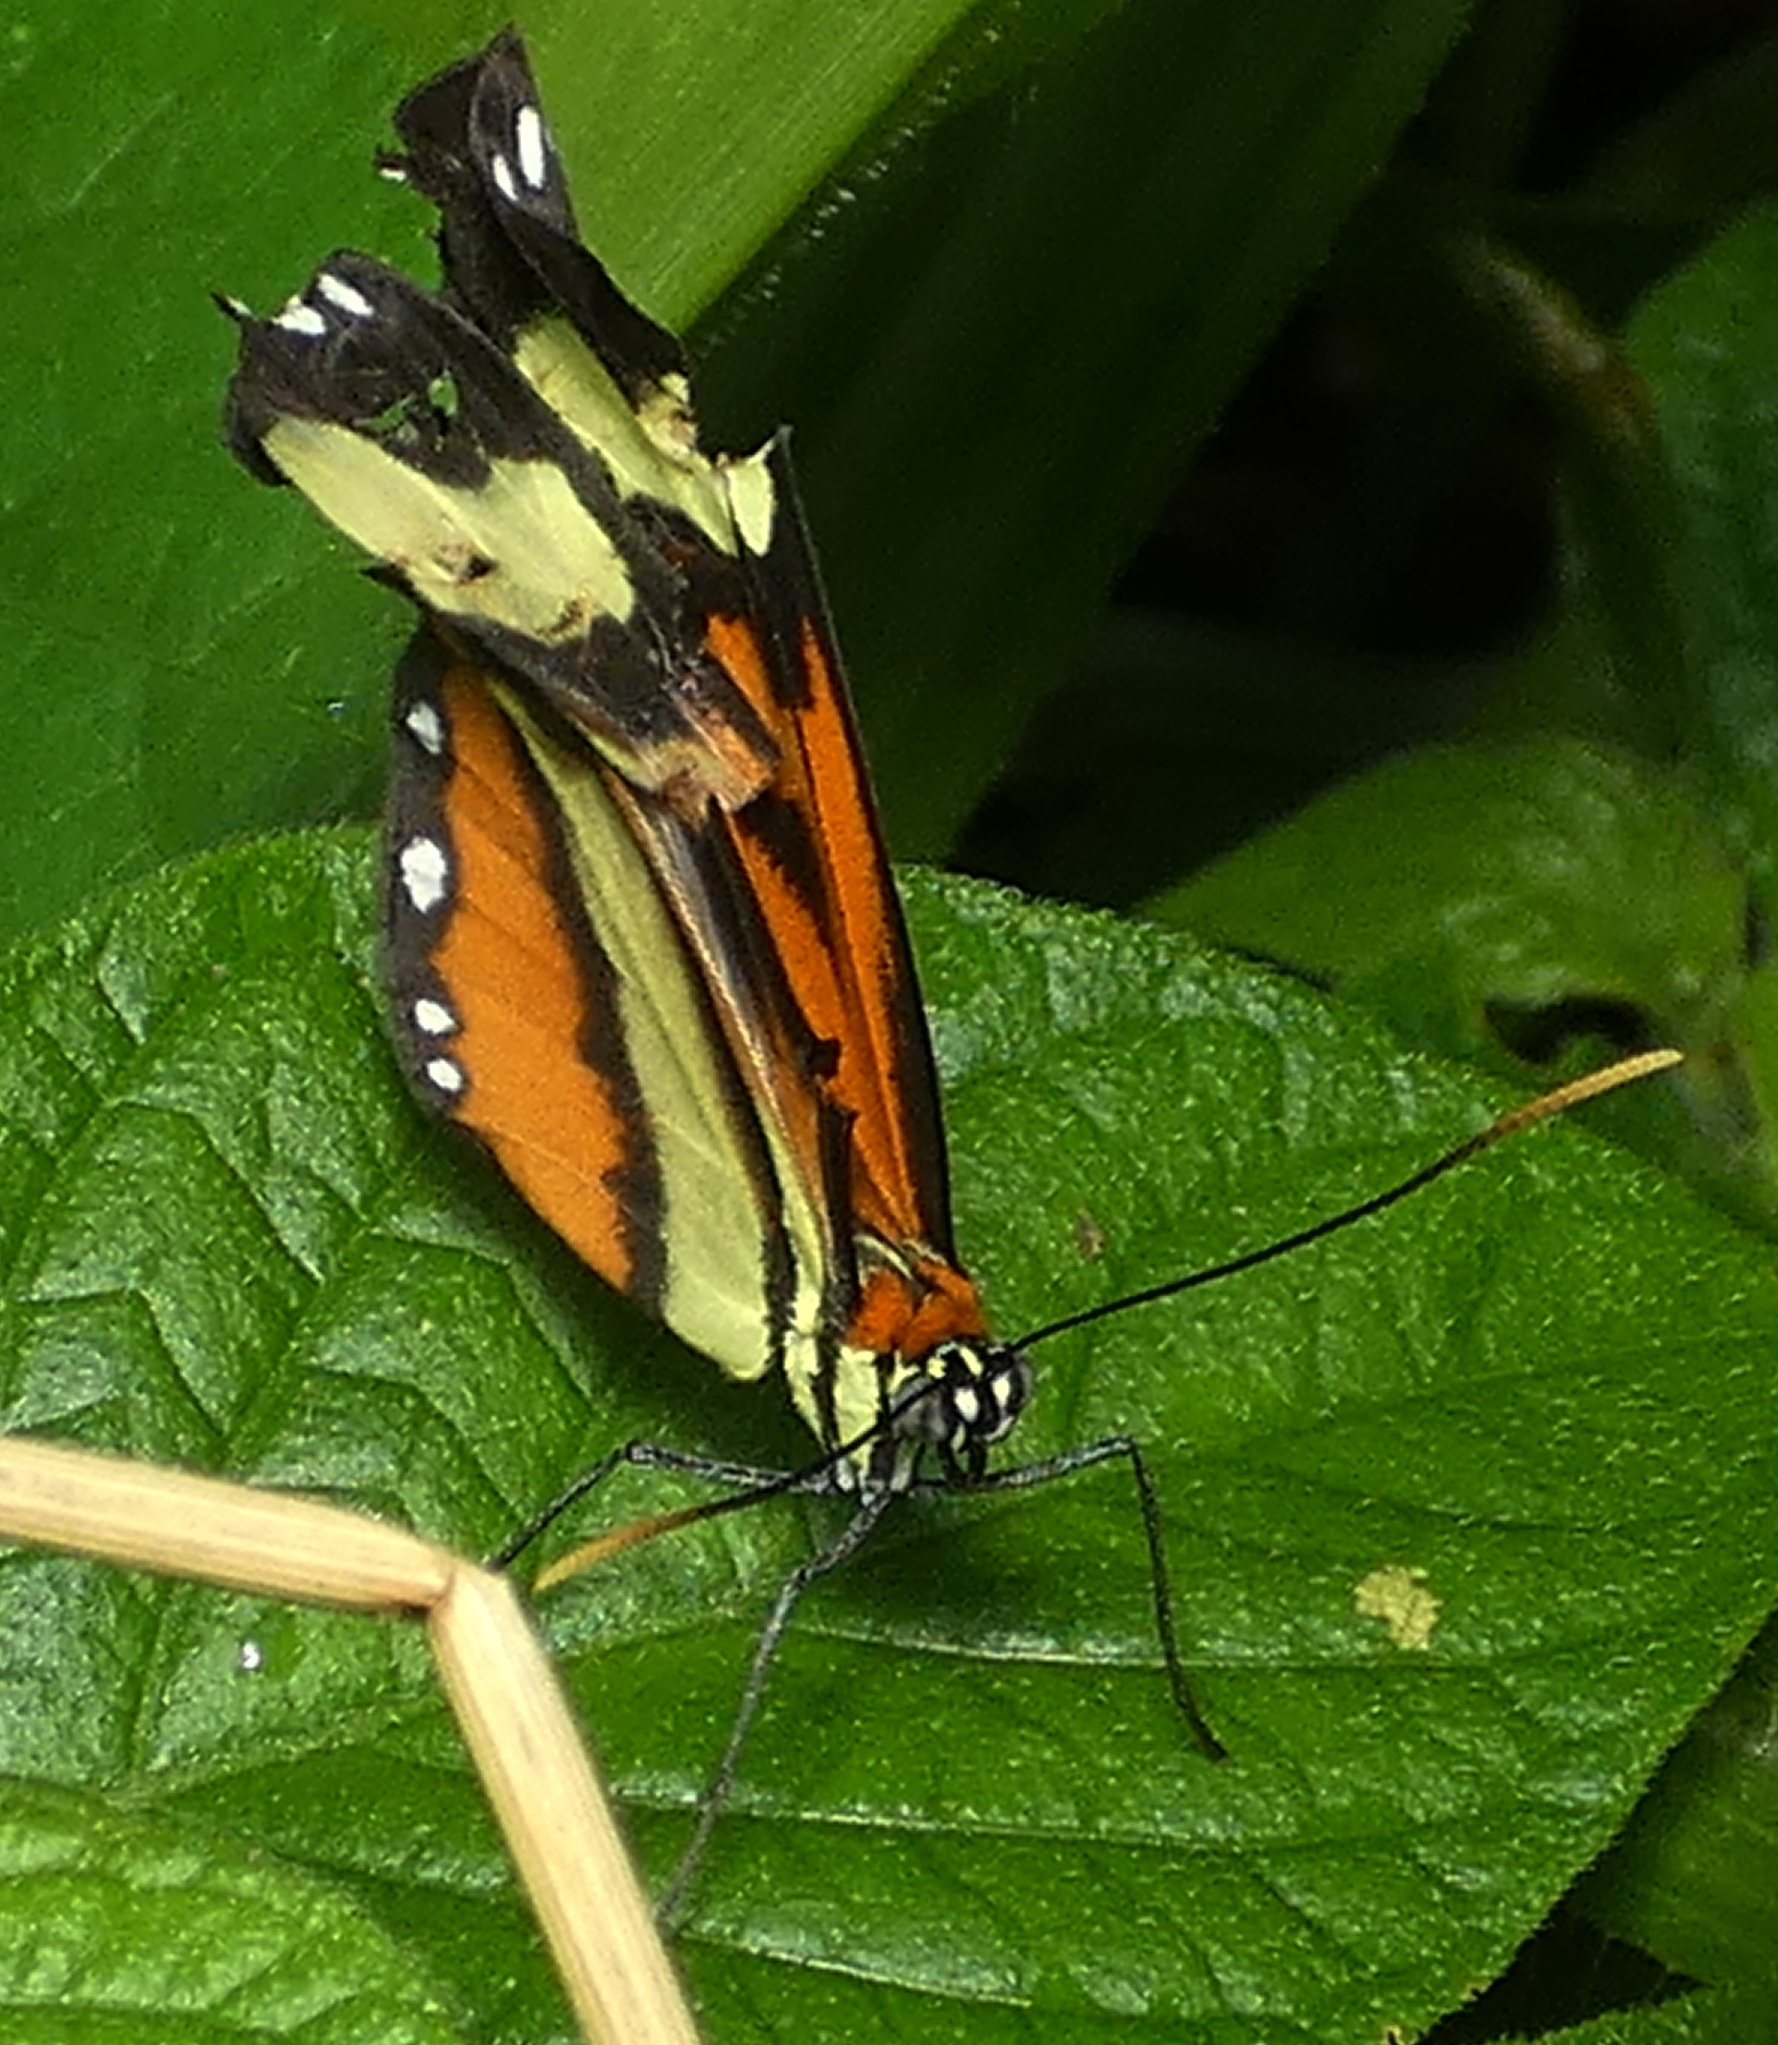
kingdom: Animalia
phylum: Arthropoda
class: Insecta
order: Lepidoptera
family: Nymphalidae
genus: Hypothyris
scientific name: Hypothyris ninonia
